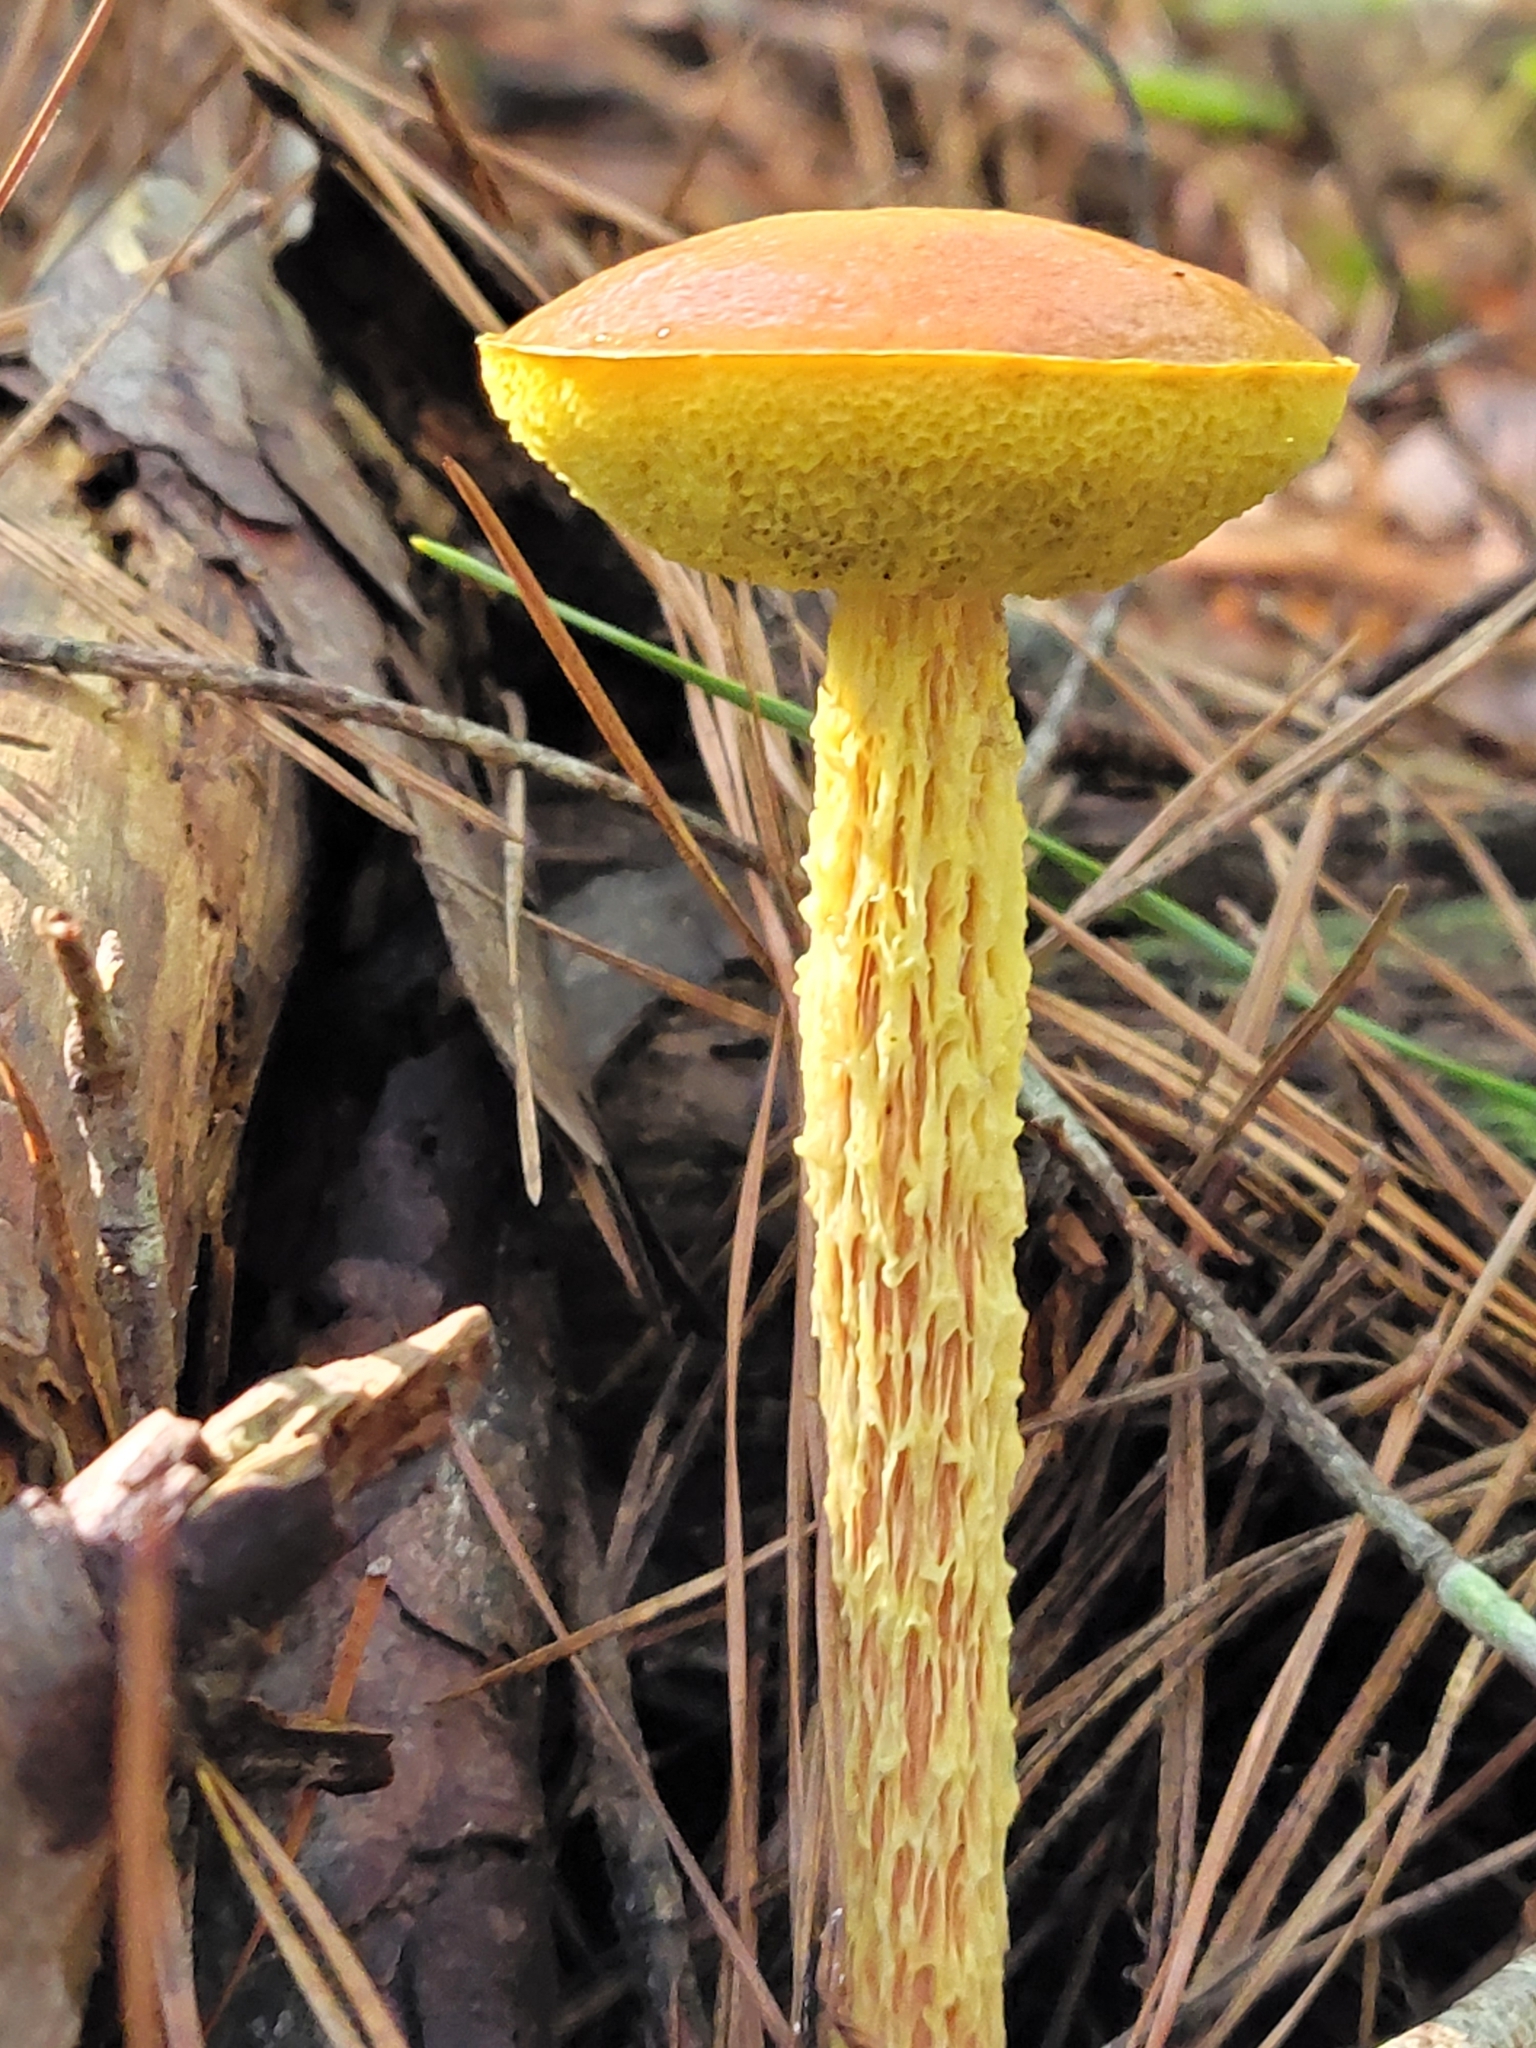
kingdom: Fungi
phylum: Basidiomycota
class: Agaricomycetes
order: Boletales
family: Boletaceae
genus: Aureoboletus
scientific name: Aureoboletus betula
